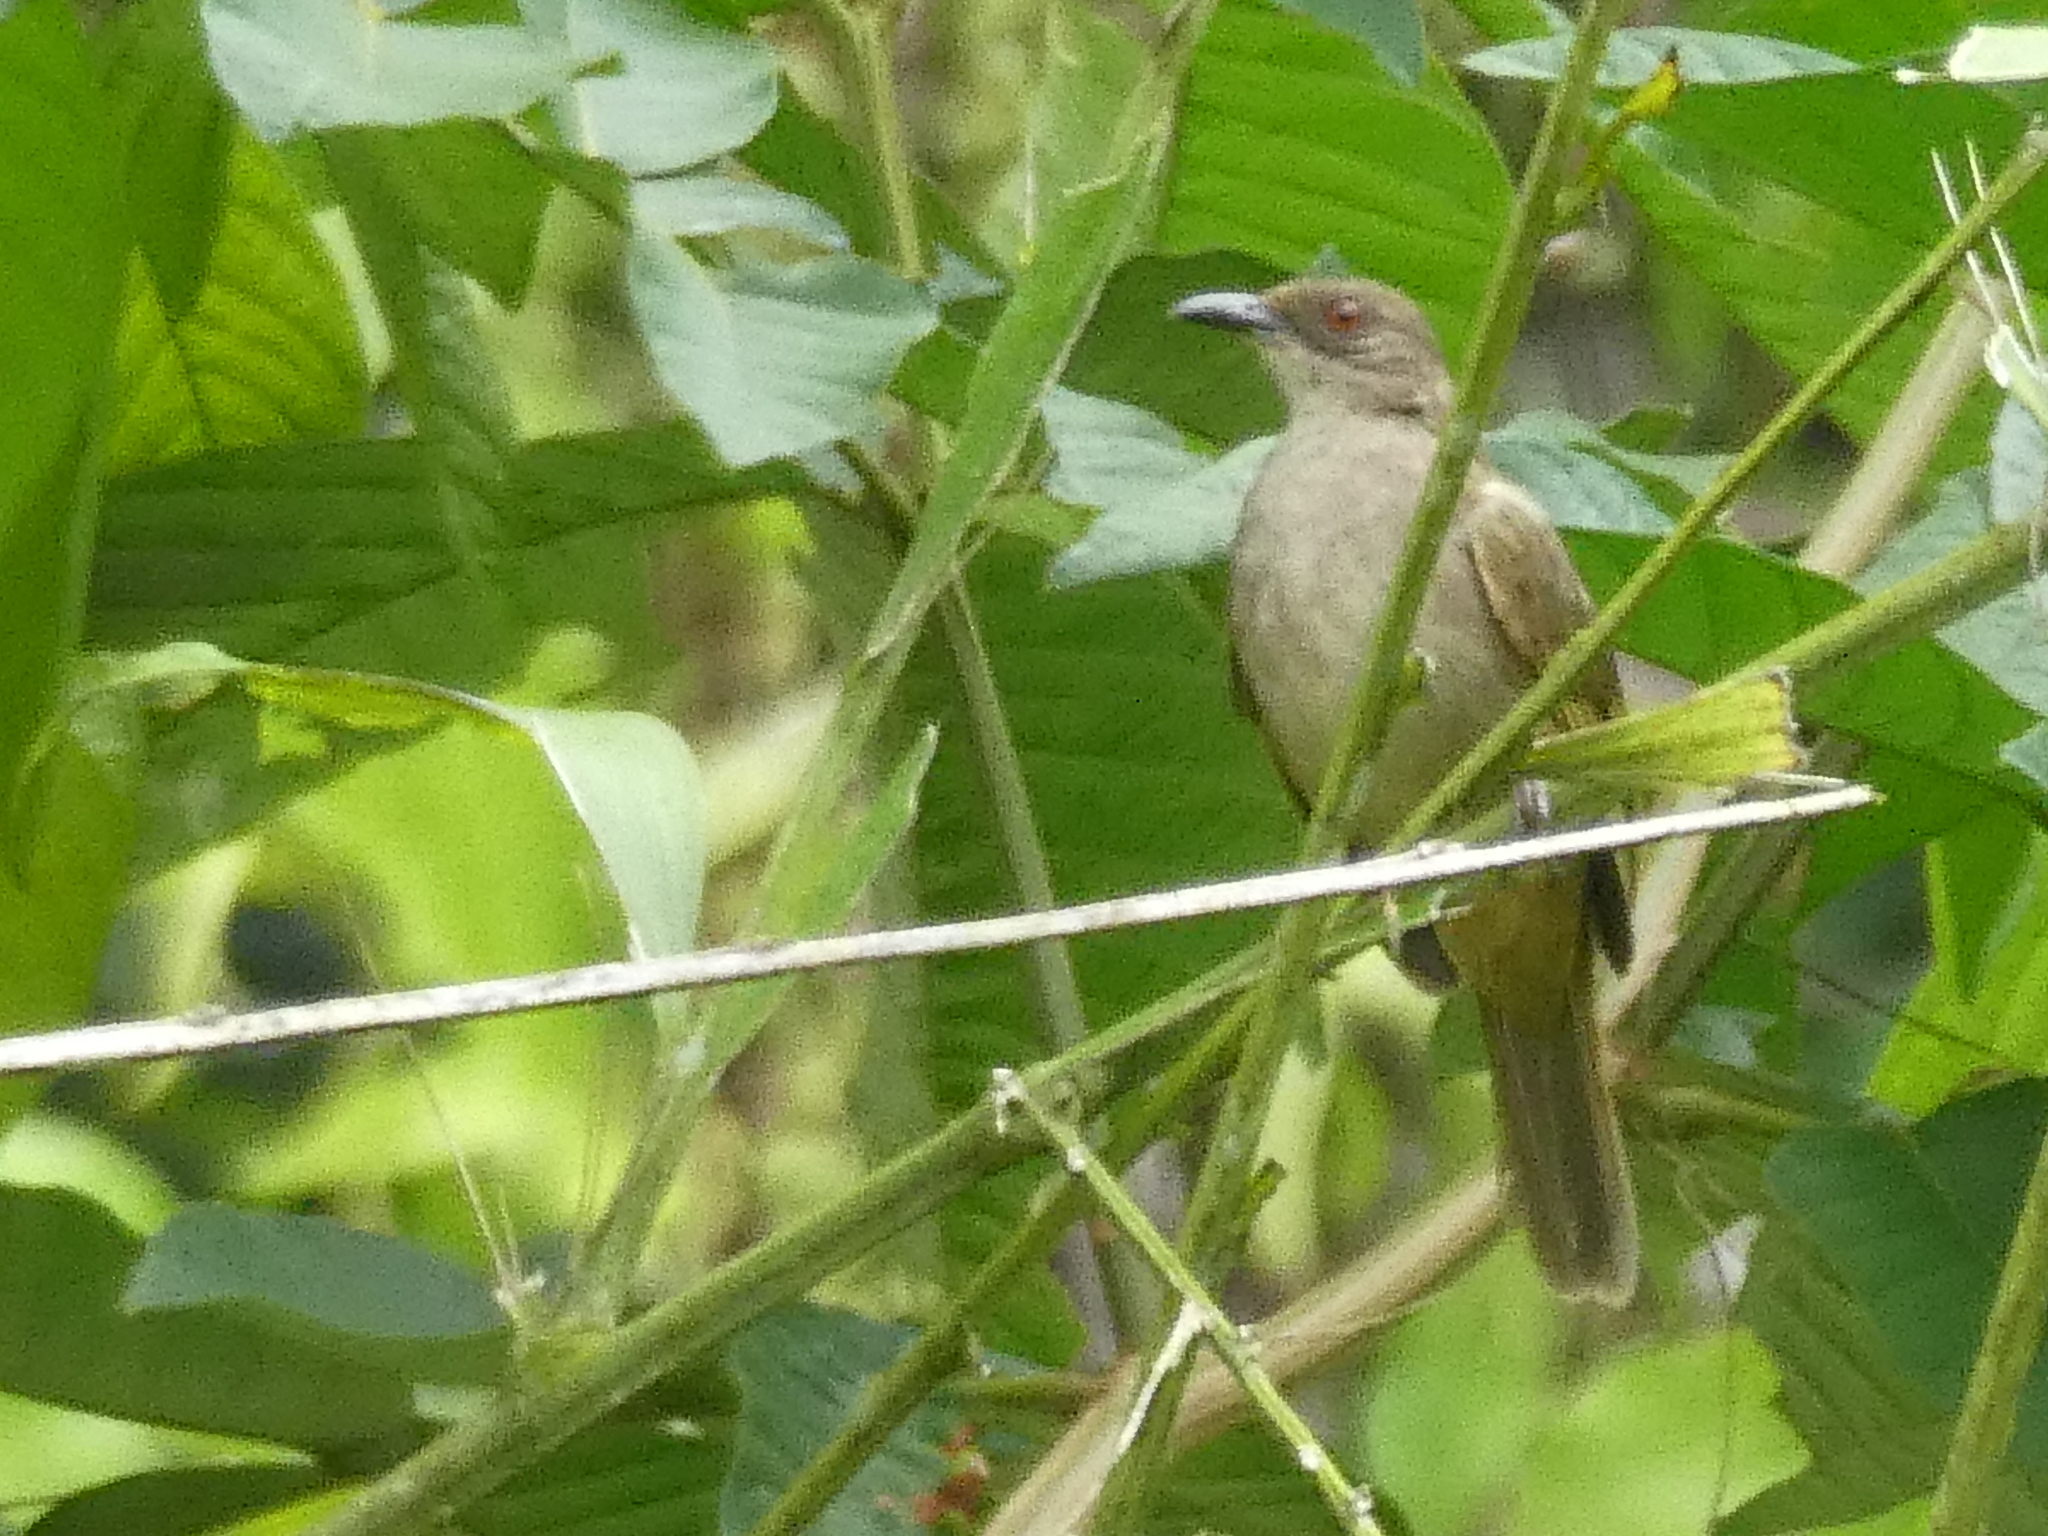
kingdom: Animalia
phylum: Chordata
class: Aves
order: Passeriformes
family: Pycnonotidae
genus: Pycnonotus
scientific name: Pycnonotus plumosus
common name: Olive-winged bulbul
